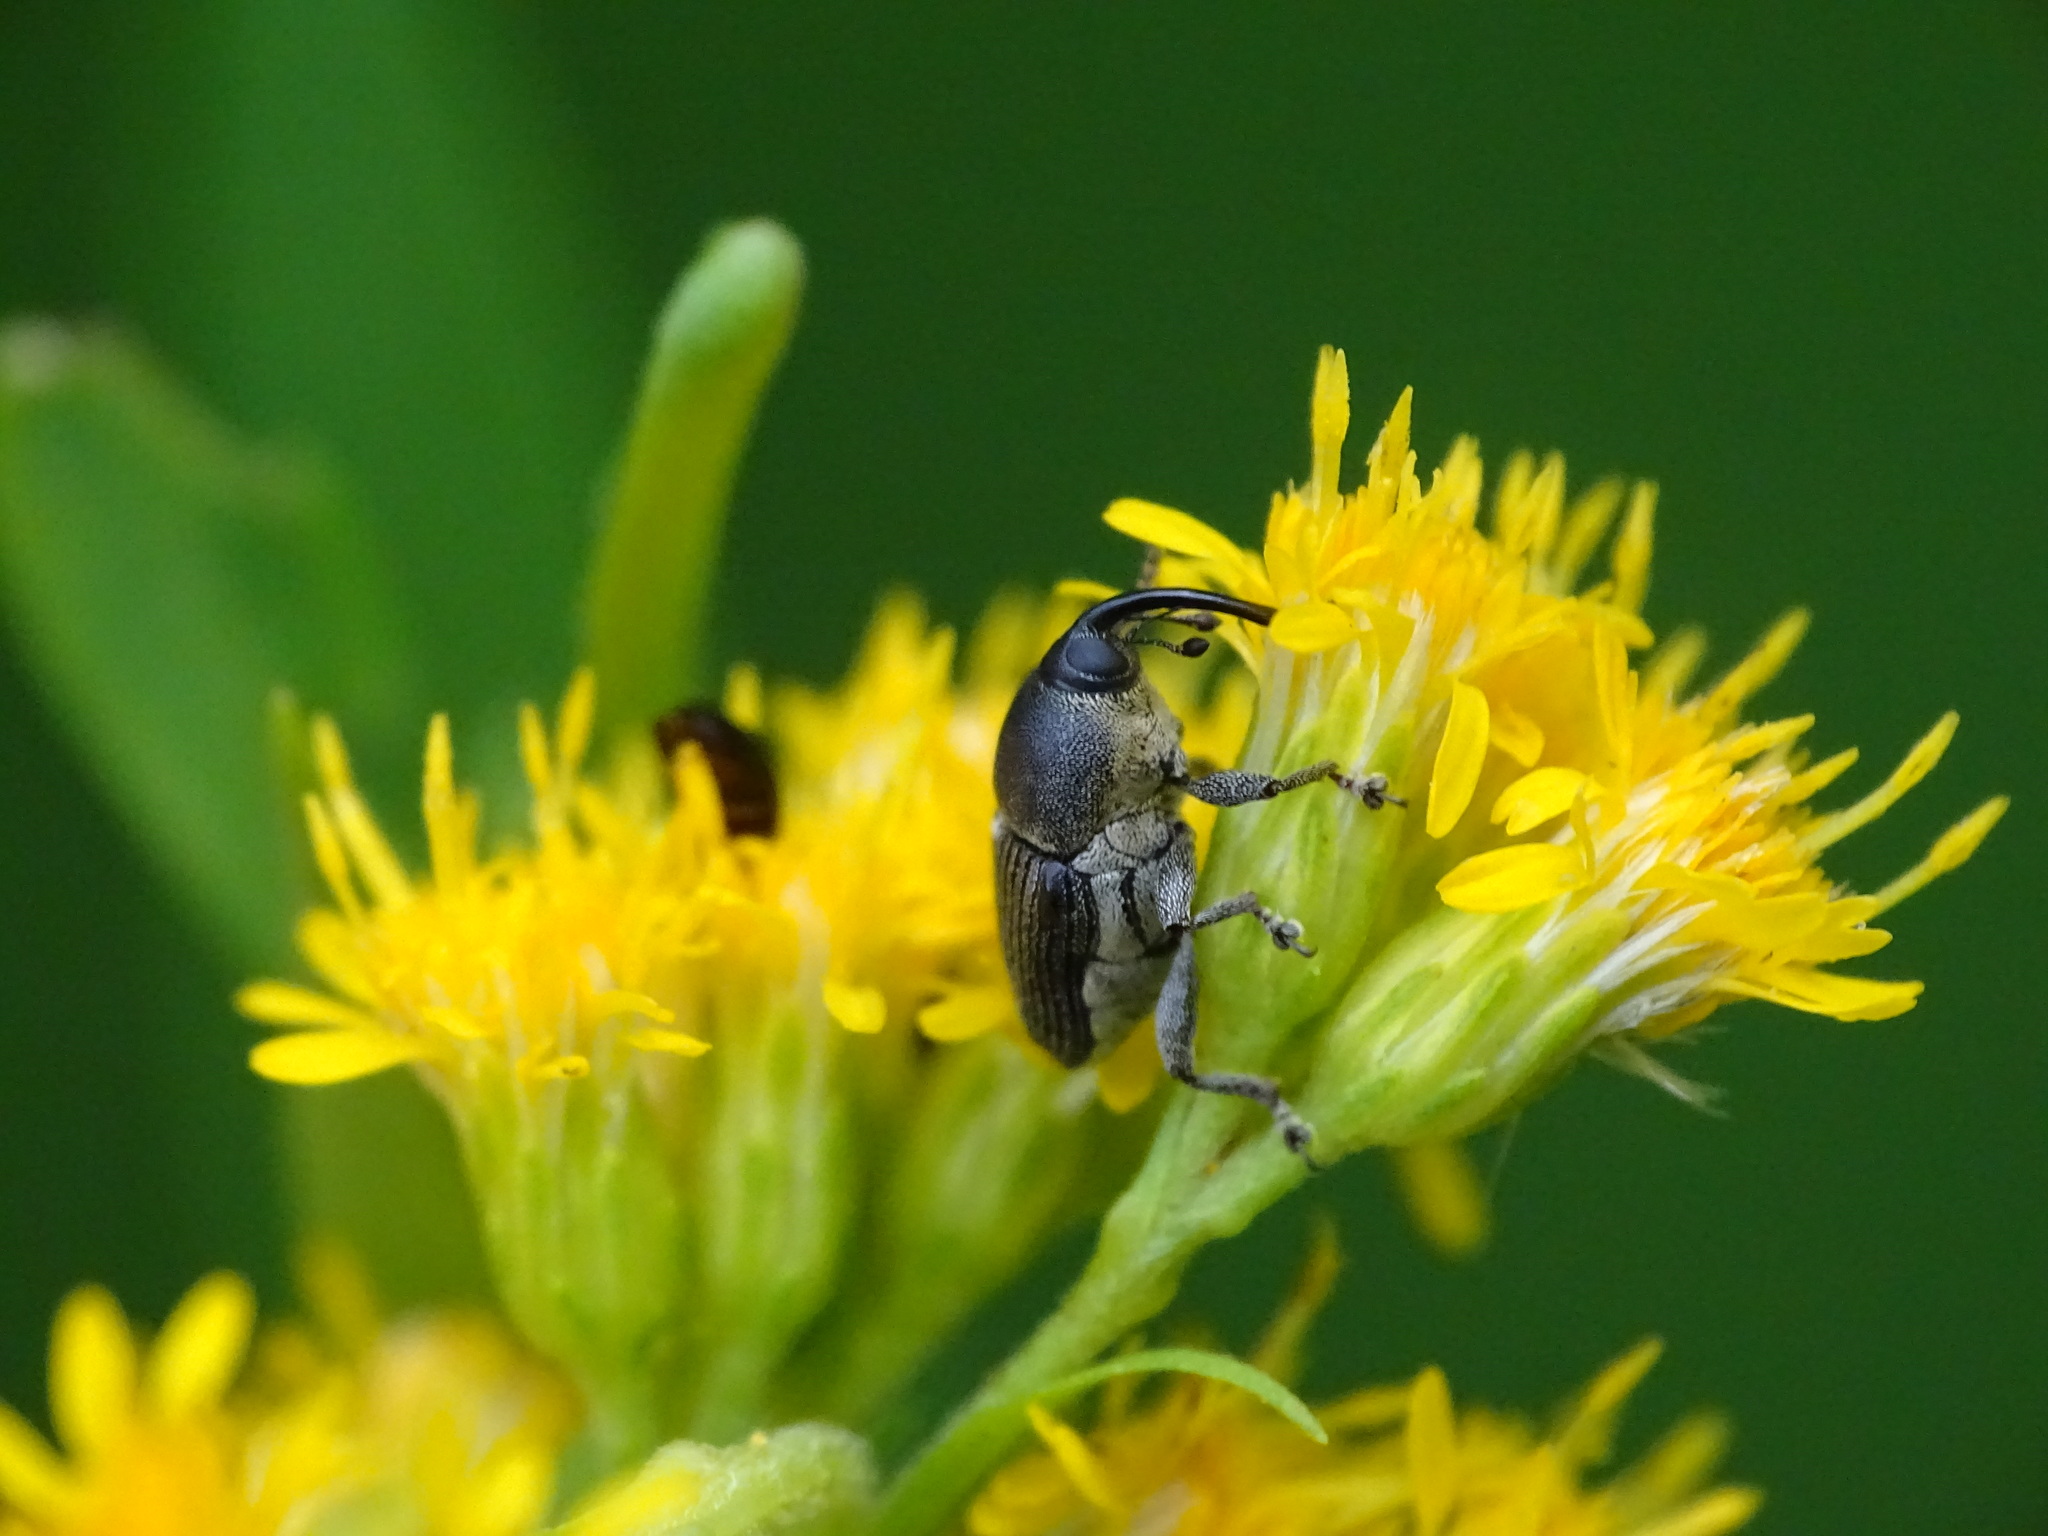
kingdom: Animalia
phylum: Arthropoda
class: Insecta
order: Coleoptera
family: Curculionidae
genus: Odontocorynus
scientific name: Odontocorynus salebrosus
